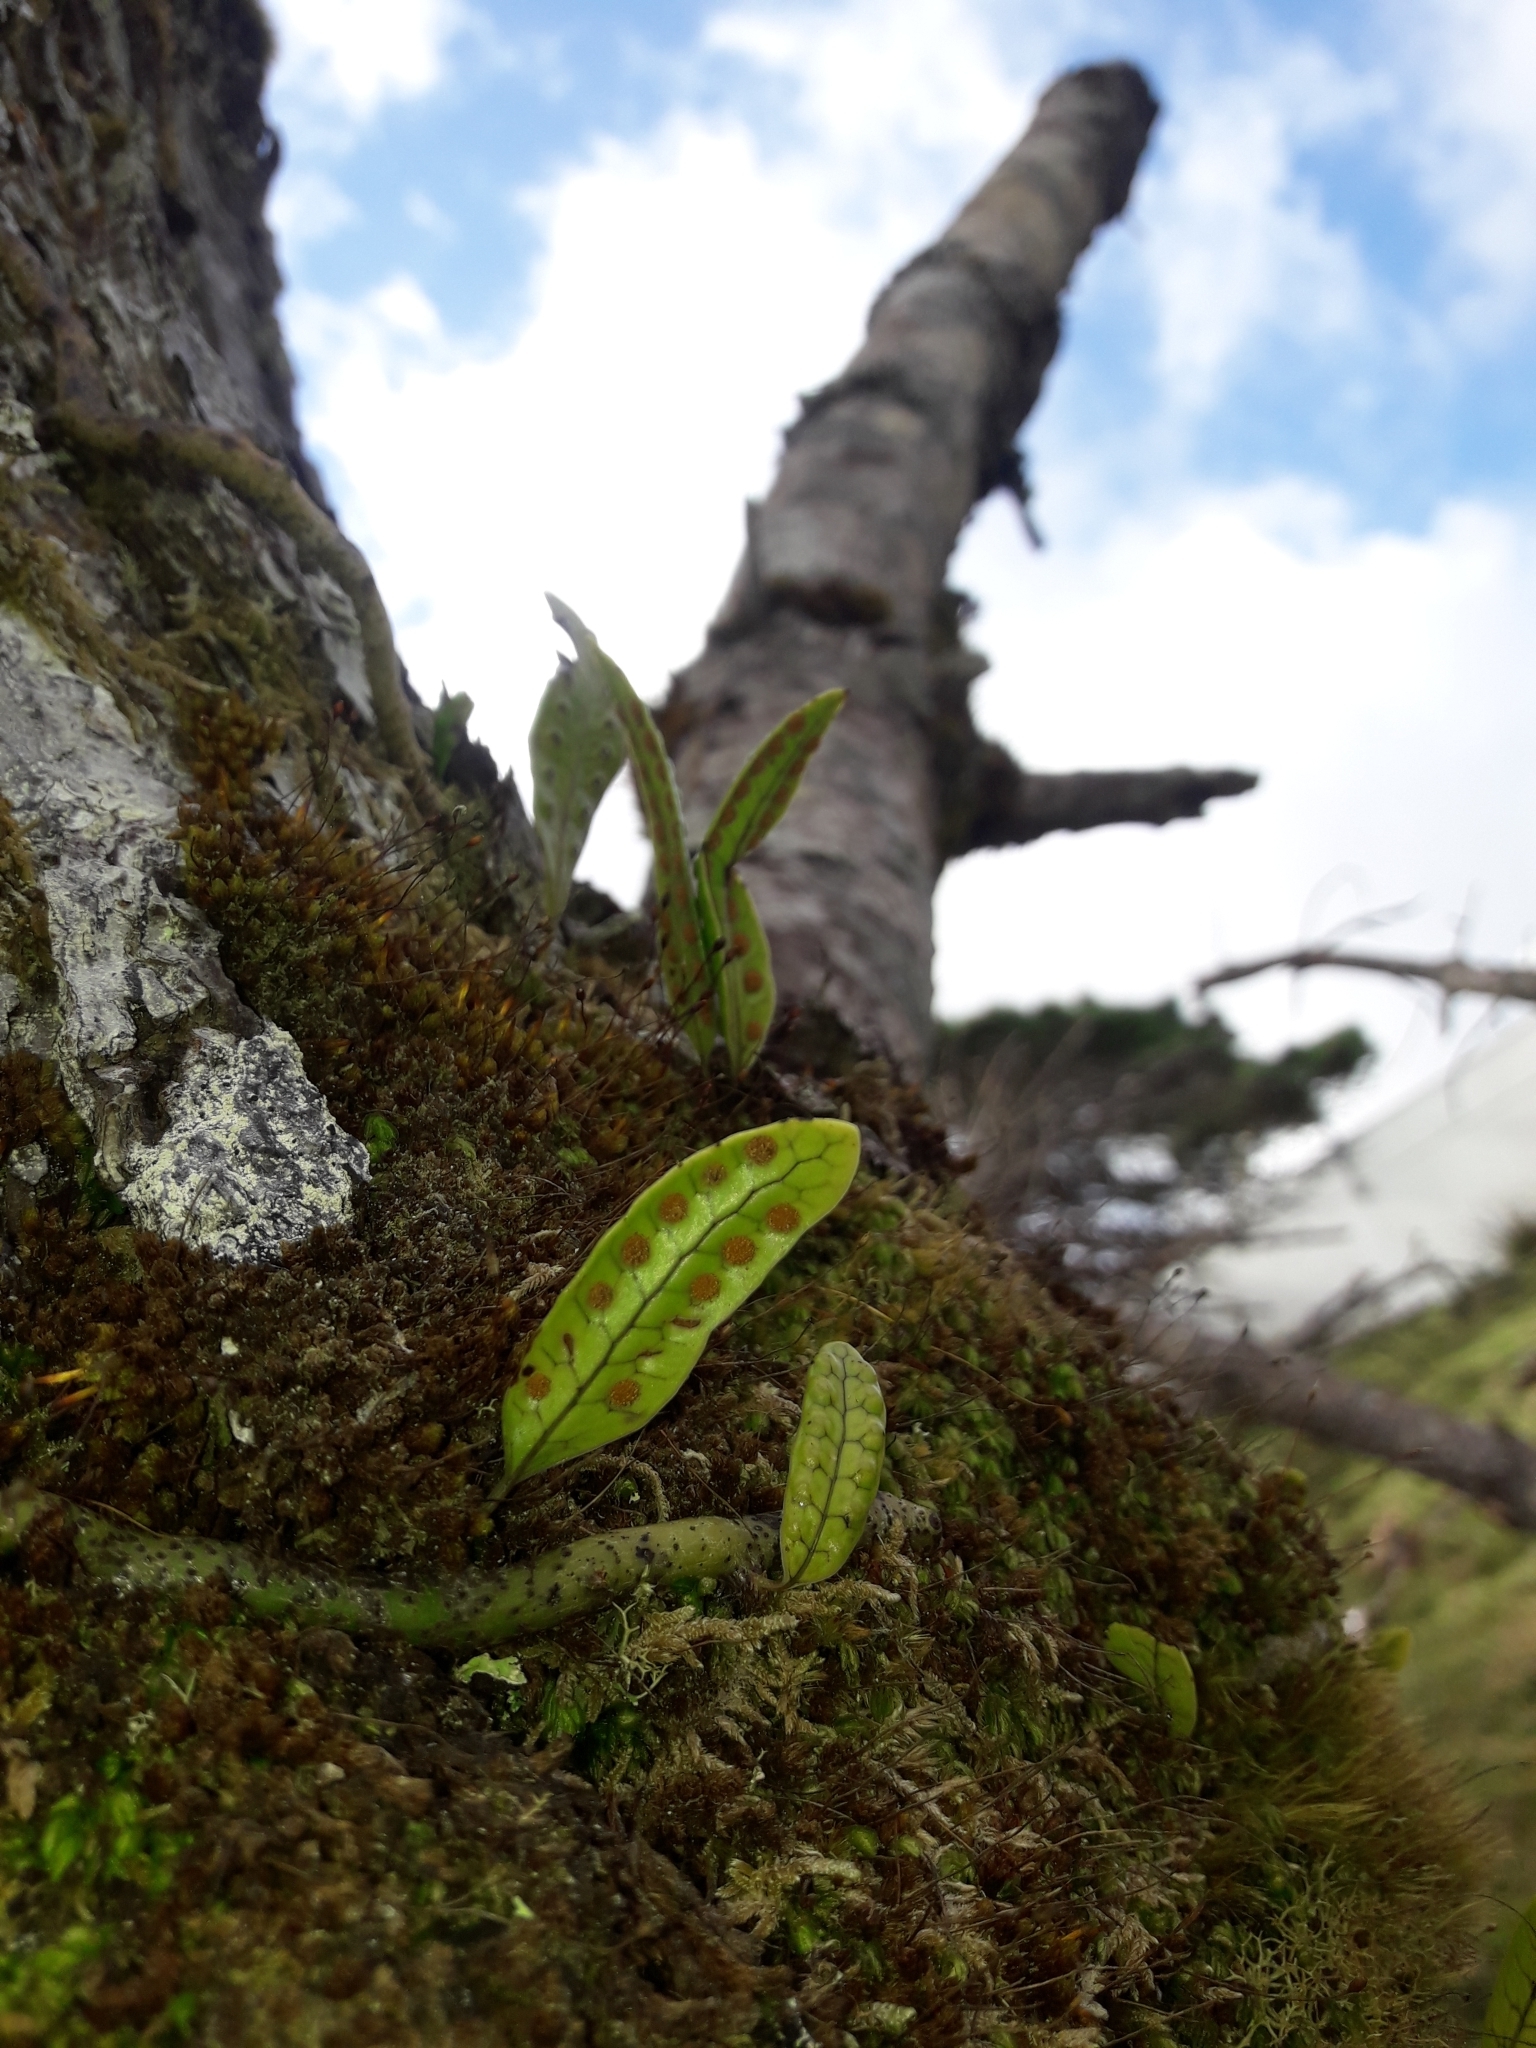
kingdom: Plantae
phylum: Tracheophyta
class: Polypodiopsida
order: Polypodiales
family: Polypodiaceae
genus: Lecanopteris
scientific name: Lecanopteris pustulata
